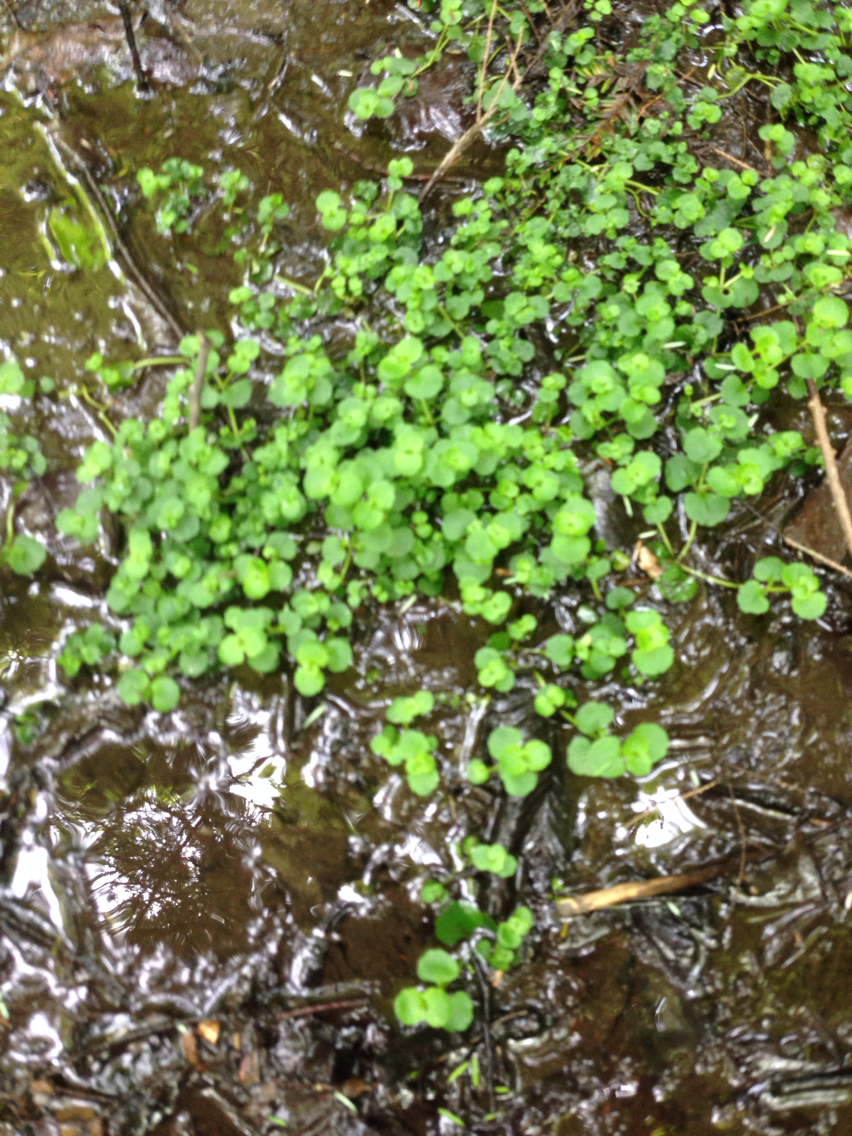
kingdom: Plantae
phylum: Tracheophyta
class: Magnoliopsida
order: Saxifragales
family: Saxifragaceae
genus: Chrysosplenium
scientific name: Chrysosplenium americanum
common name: American golden-saxifrage
